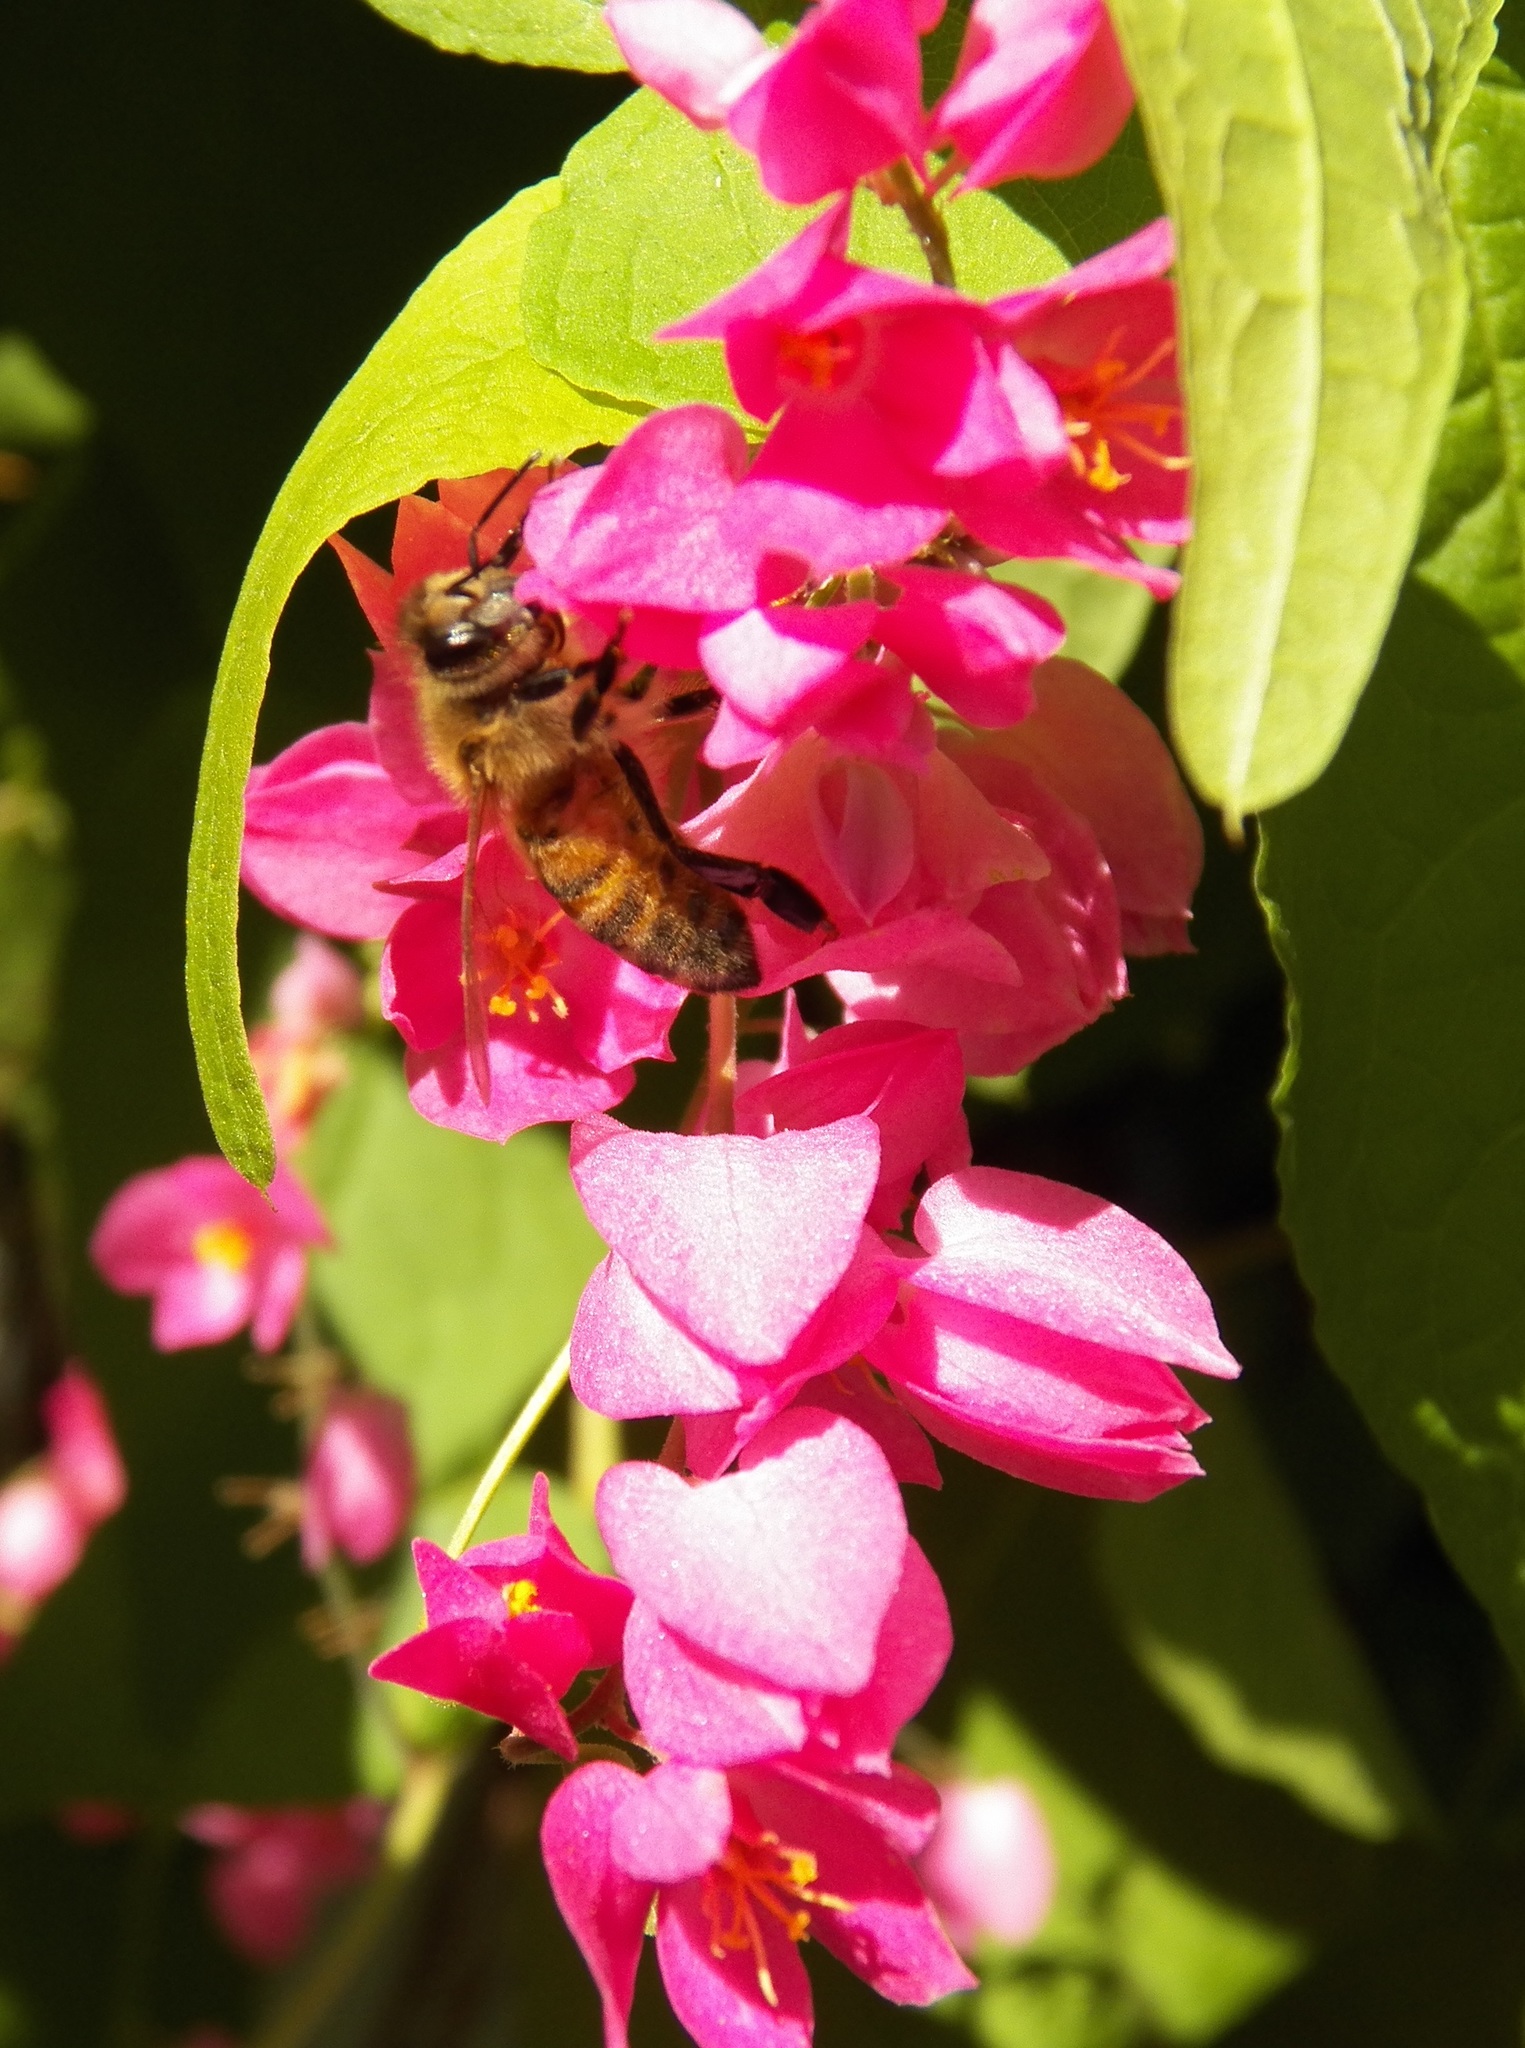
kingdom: Animalia
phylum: Arthropoda
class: Insecta
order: Hymenoptera
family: Apidae
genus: Apis
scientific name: Apis mellifera
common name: Honey bee
